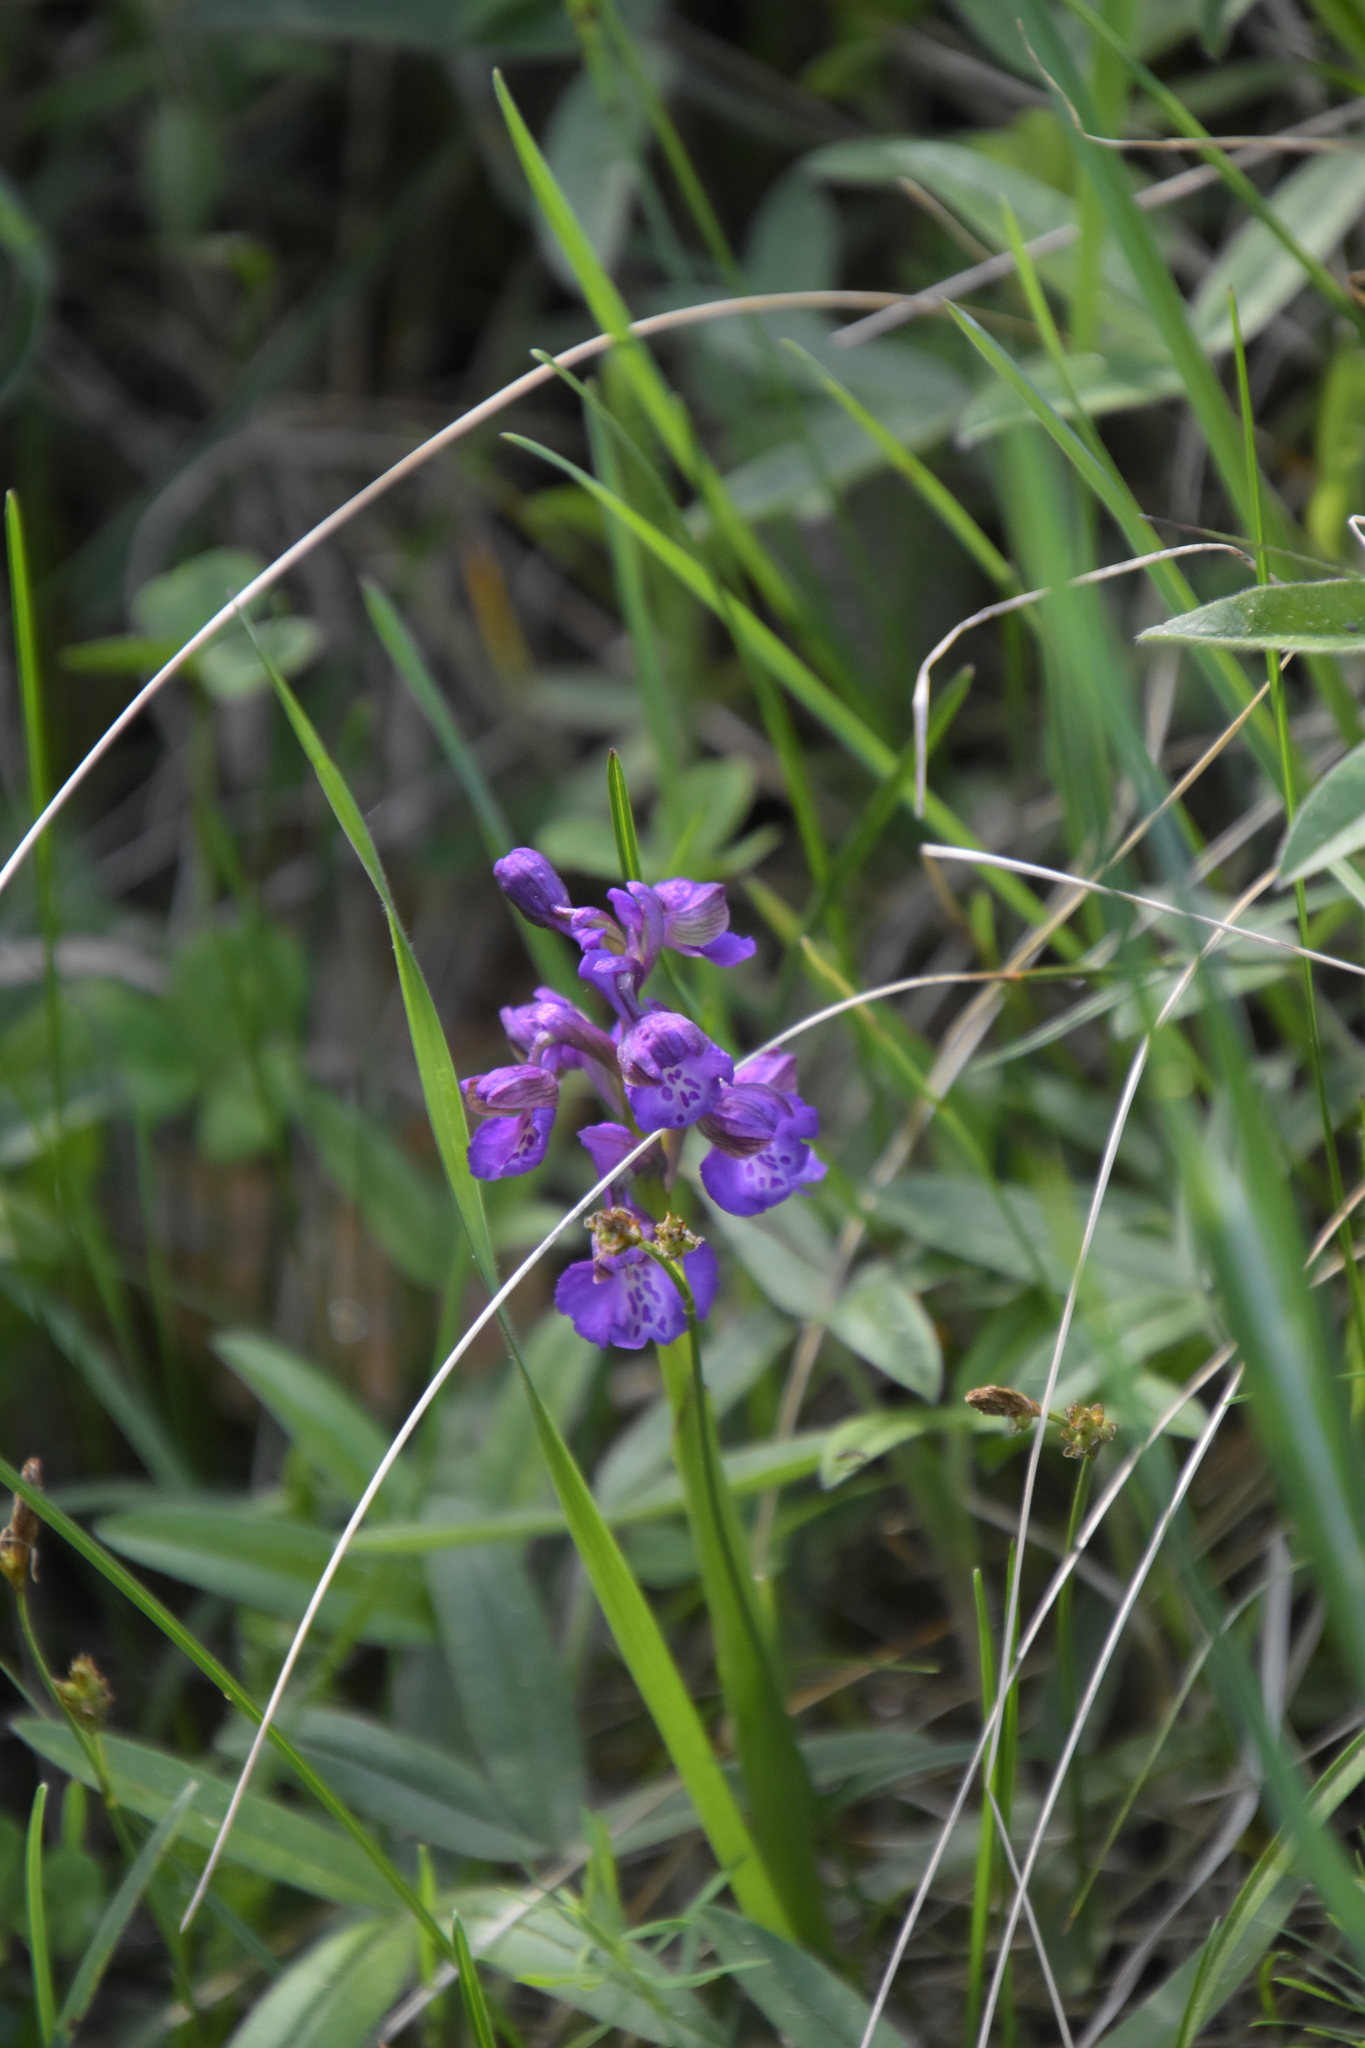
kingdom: Plantae
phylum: Tracheophyta
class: Liliopsida
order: Asparagales
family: Orchidaceae
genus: Anacamptis
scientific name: Anacamptis morio
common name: Green-winged orchid
